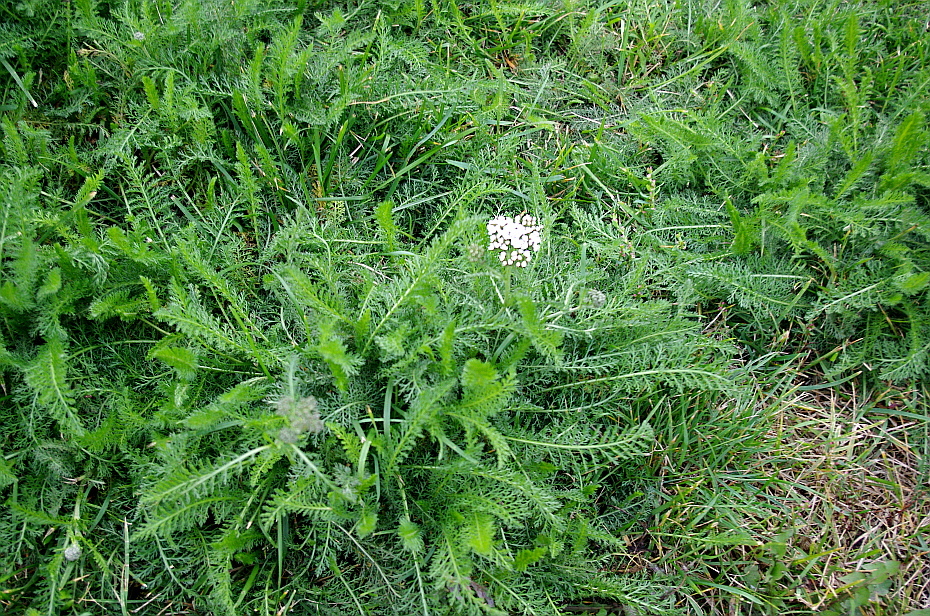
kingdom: Plantae
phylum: Tracheophyta
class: Magnoliopsida
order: Asterales
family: Asteraceae
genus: Achillea
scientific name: Achillea millefolium
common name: Yarrow
